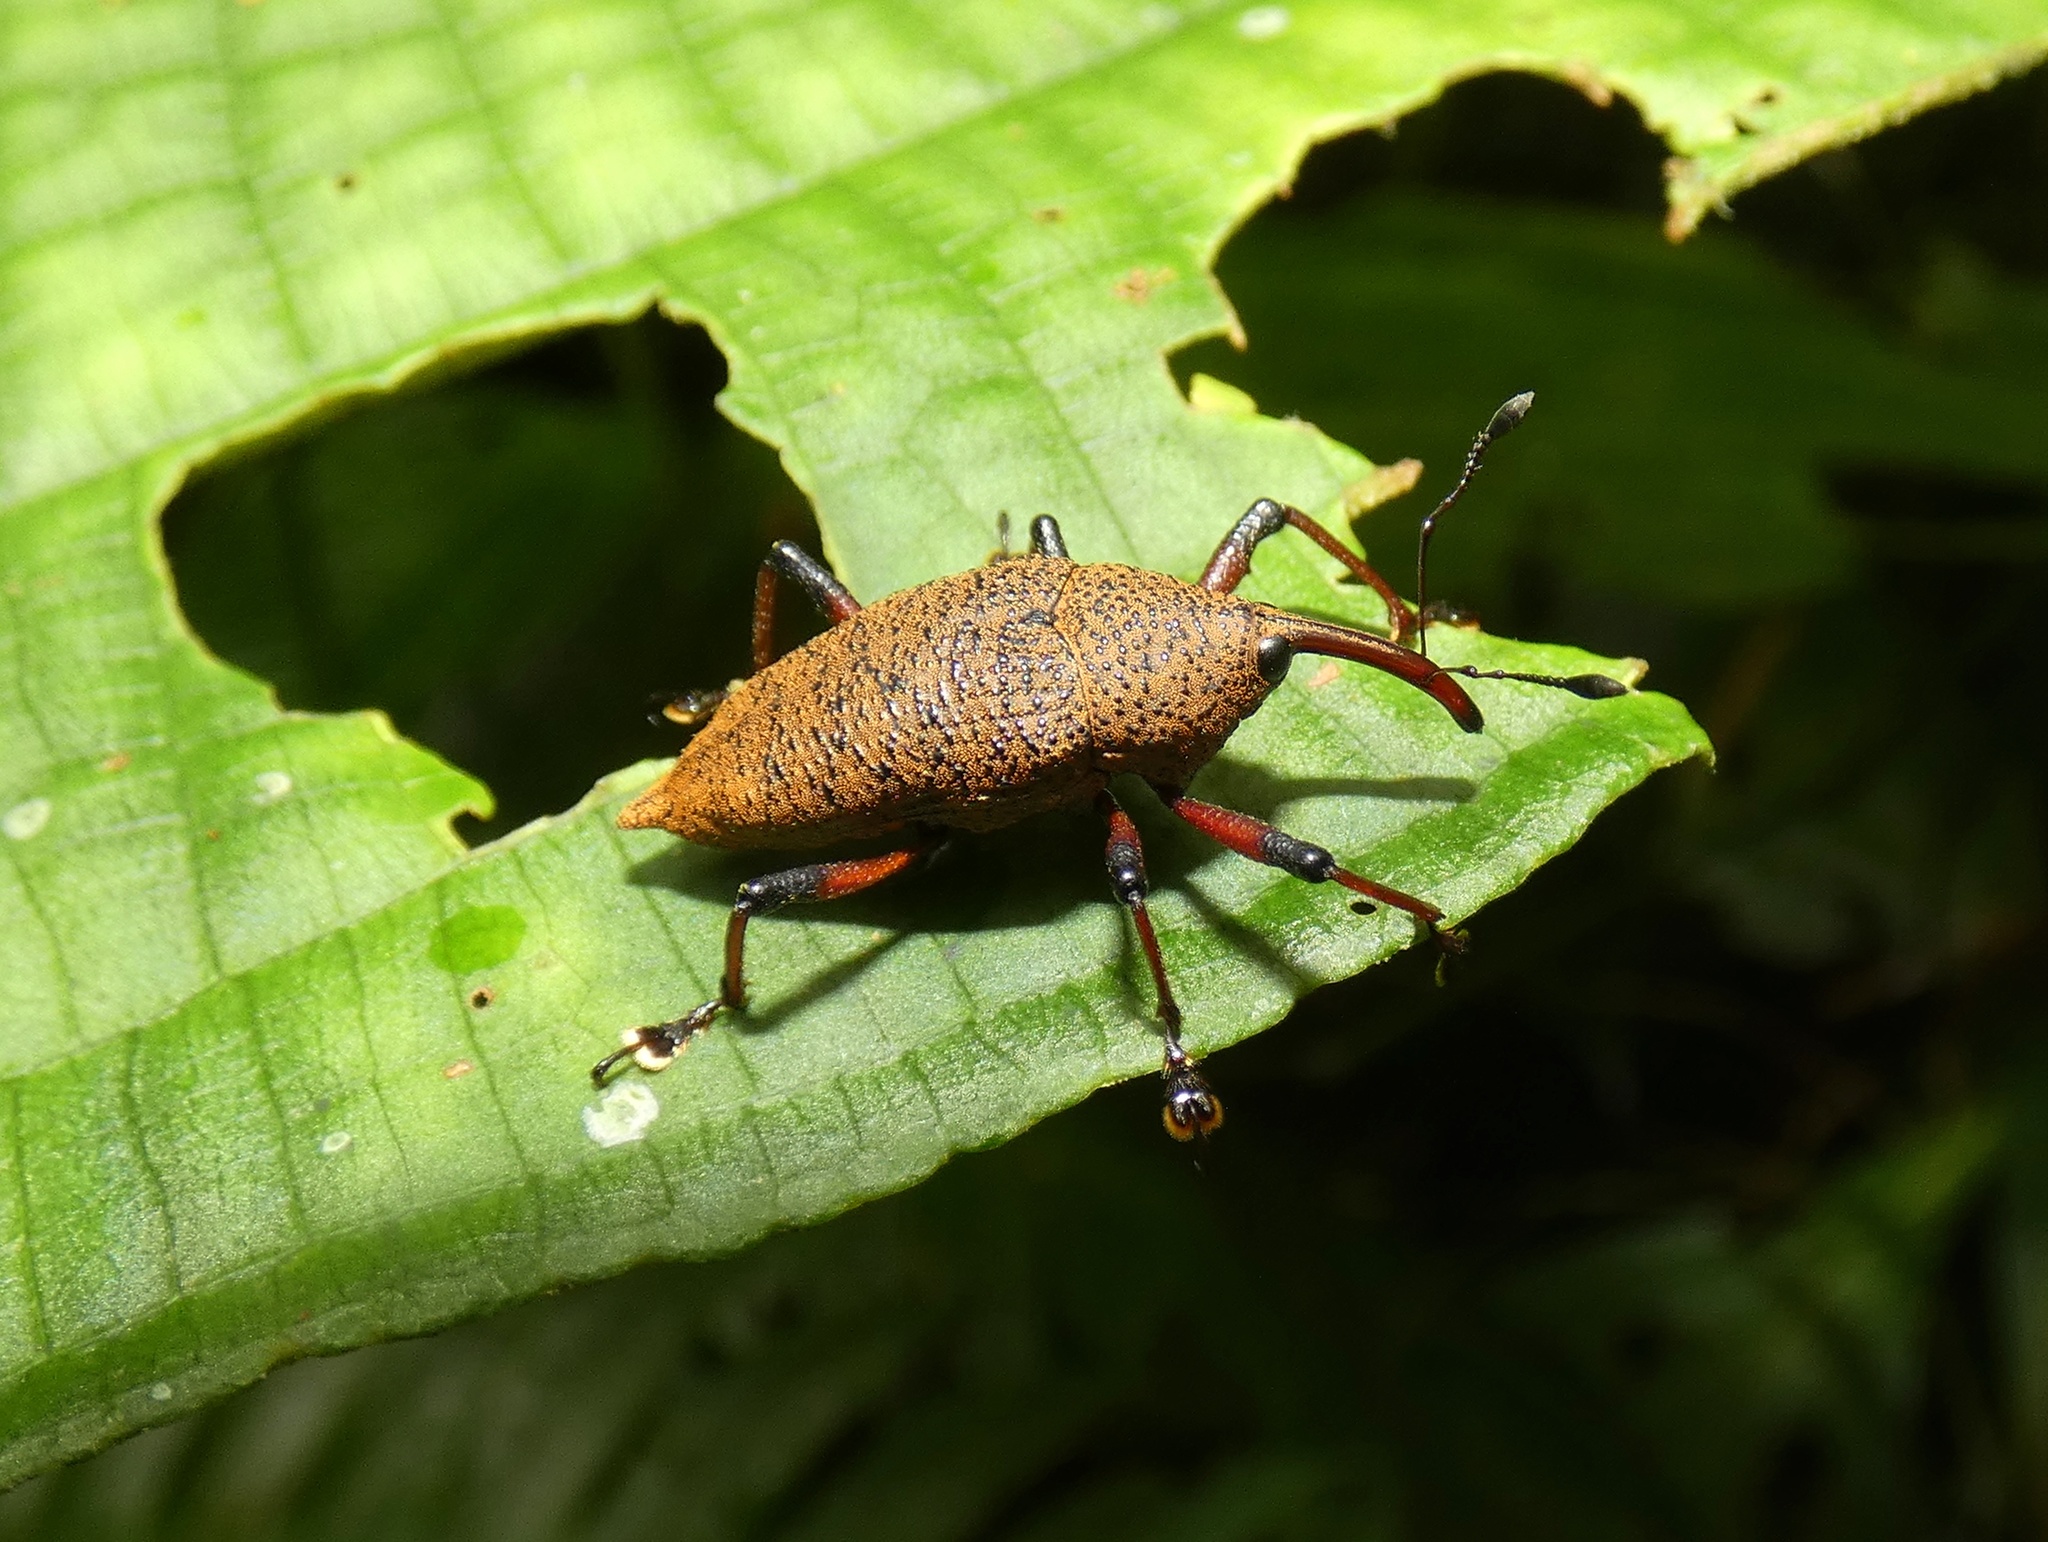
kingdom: Animalia
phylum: Arthropoda
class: Insecta
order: Coleoptera
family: Curculionidae
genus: Cholus
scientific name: Cholus subcaudatus
